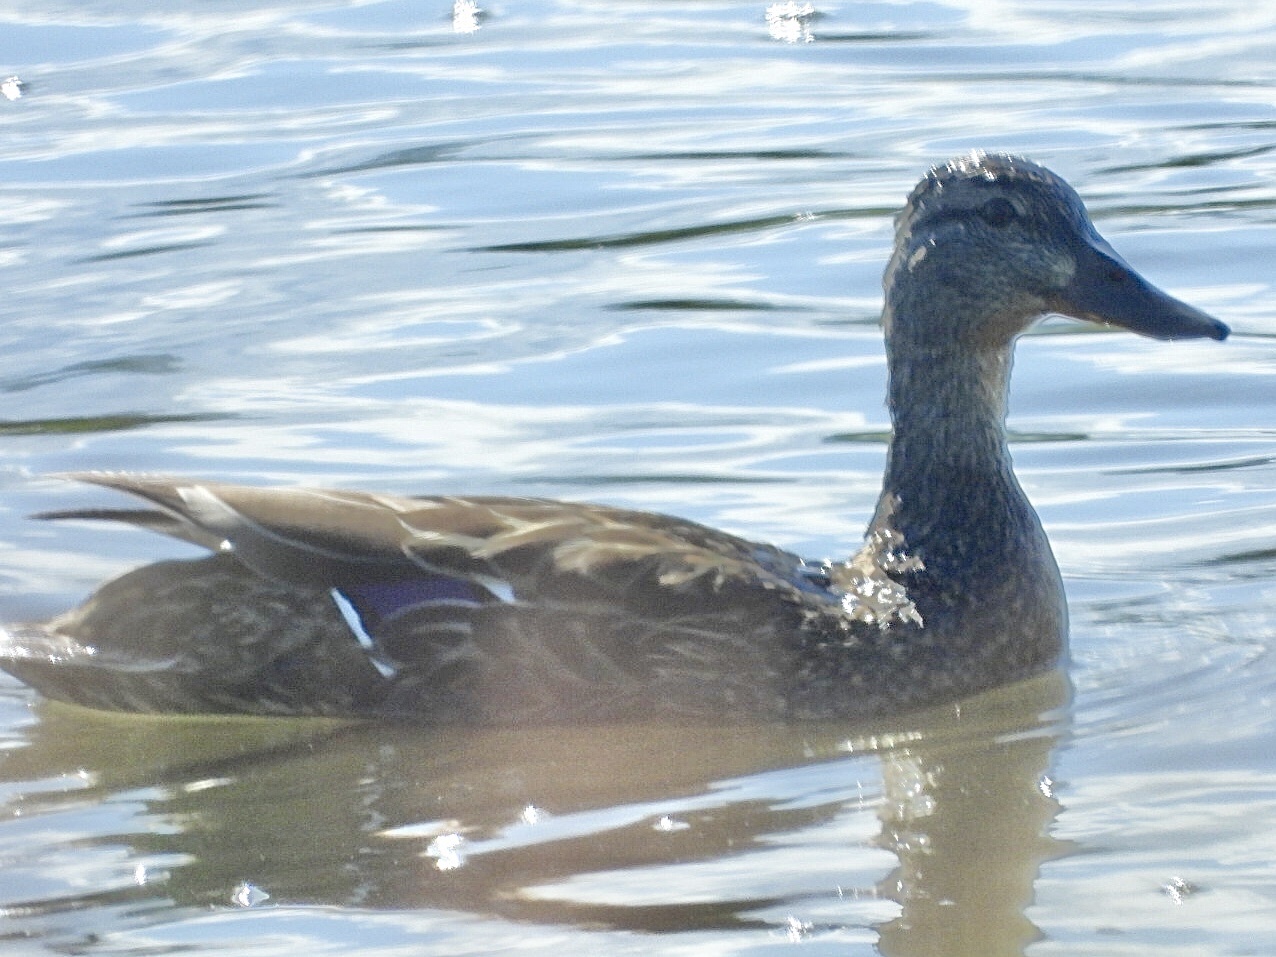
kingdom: Animalia
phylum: Chordata
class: Aves
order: Anseriformes
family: Anatidae
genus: Anas
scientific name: Anas platyrhynchos
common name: Mallard
